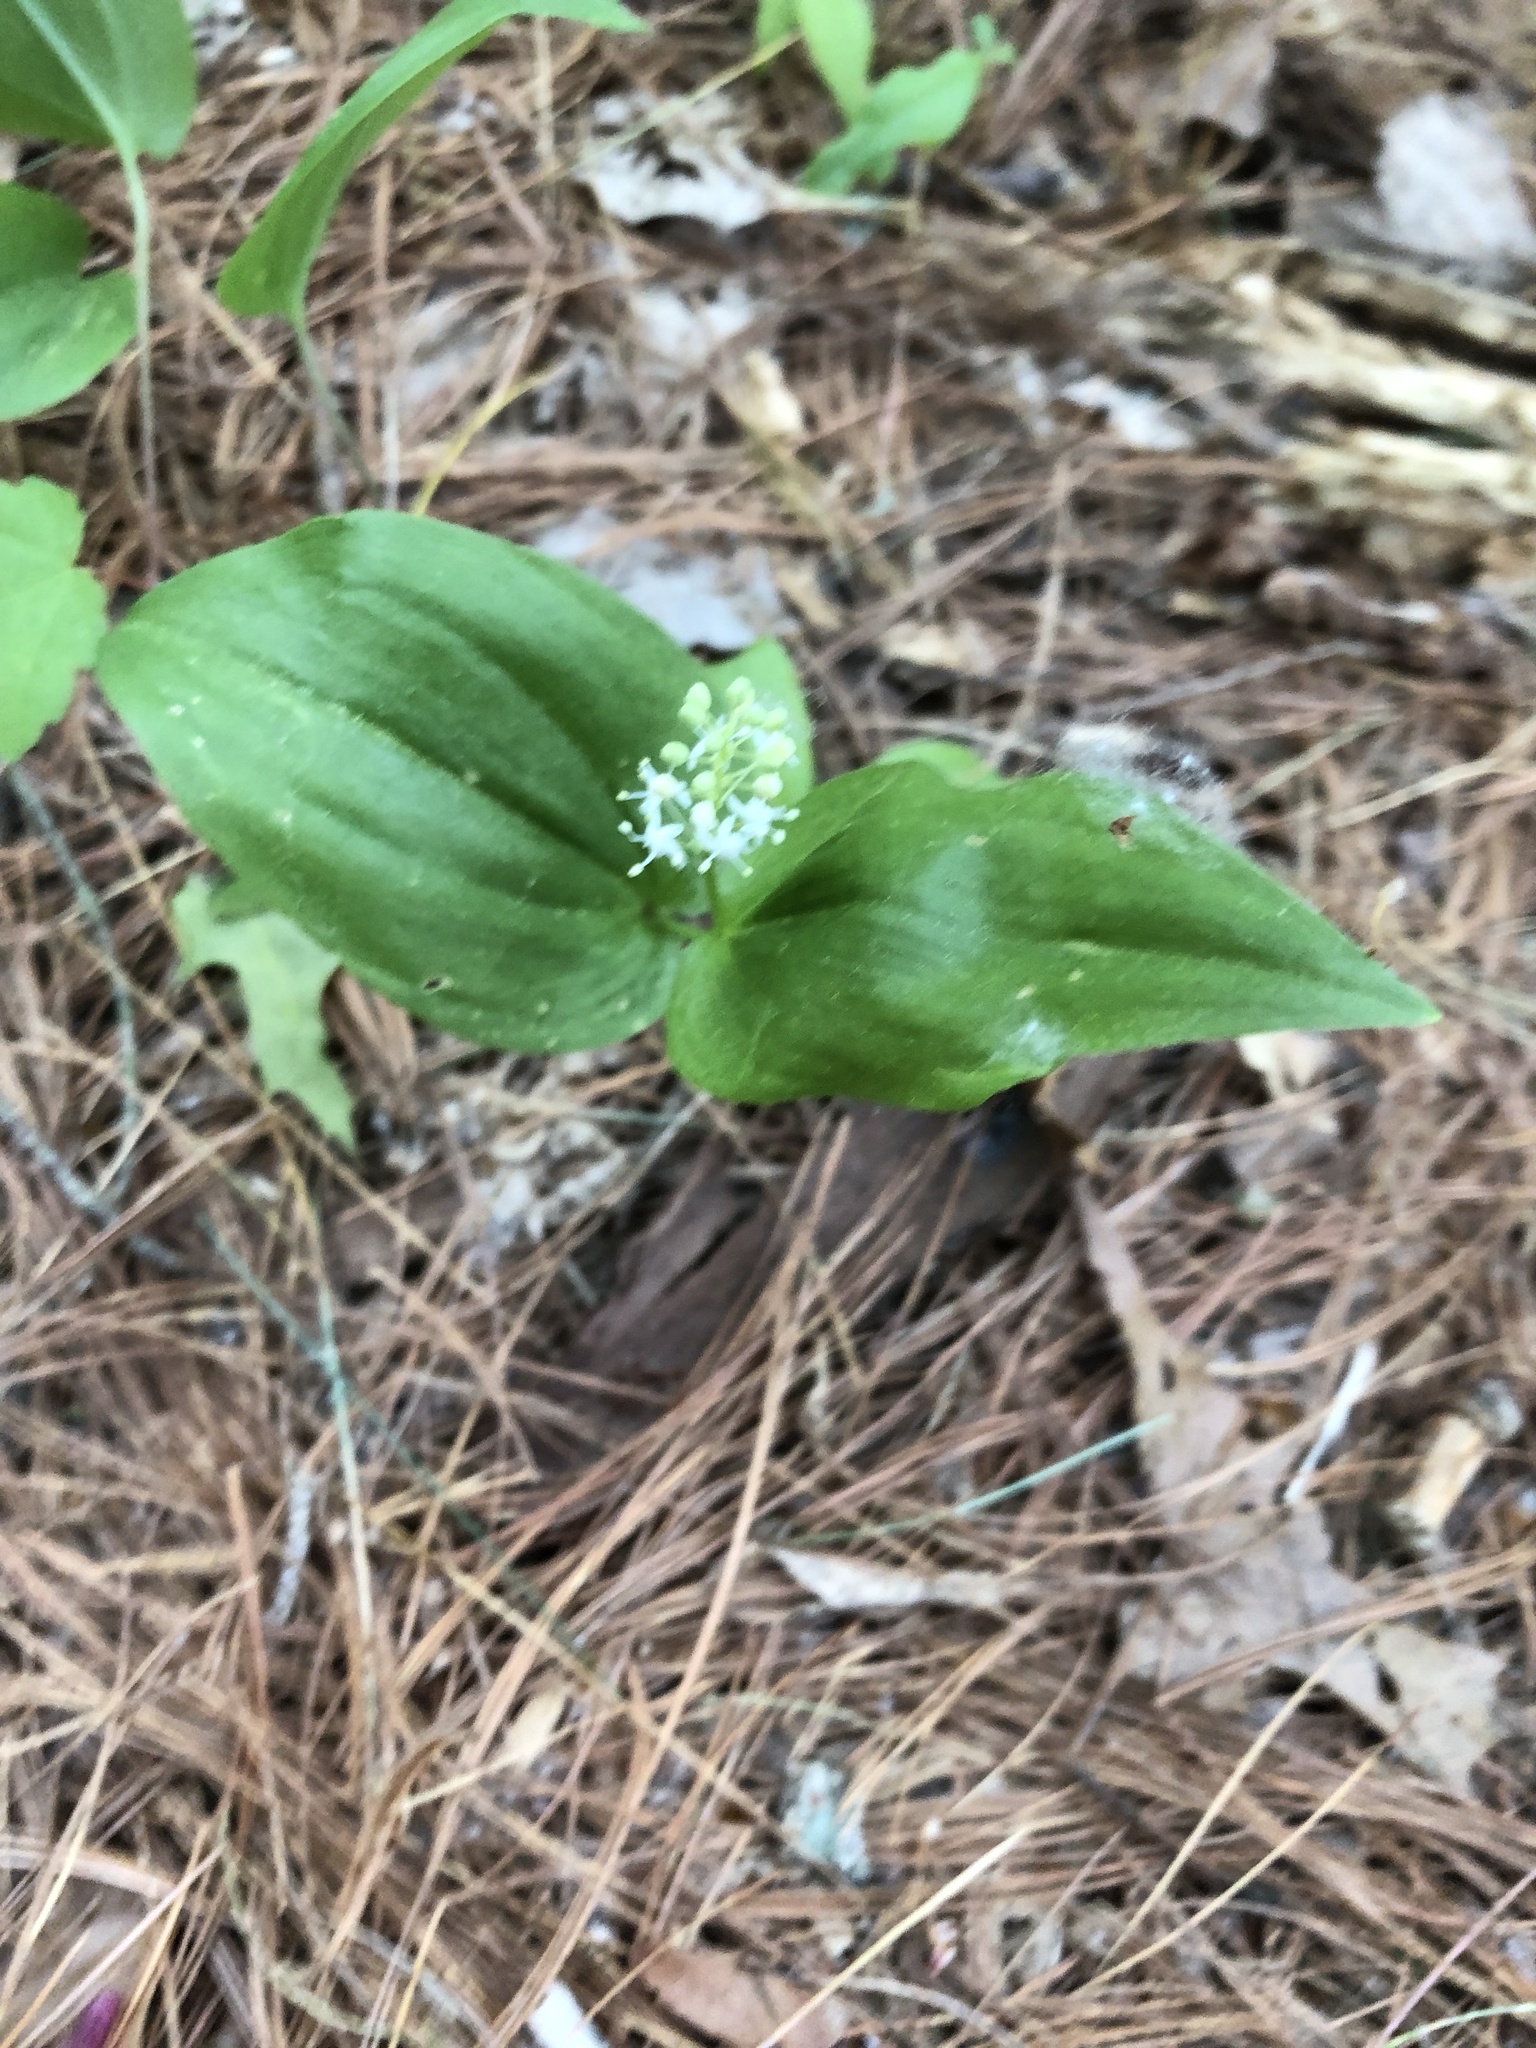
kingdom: Plantae
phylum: Tracheophyta
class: Liliopsida
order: Asparagales
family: Asparagaceae
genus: Maianthemum
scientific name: Maianthemum canadense
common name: False lily-of-the-valley
